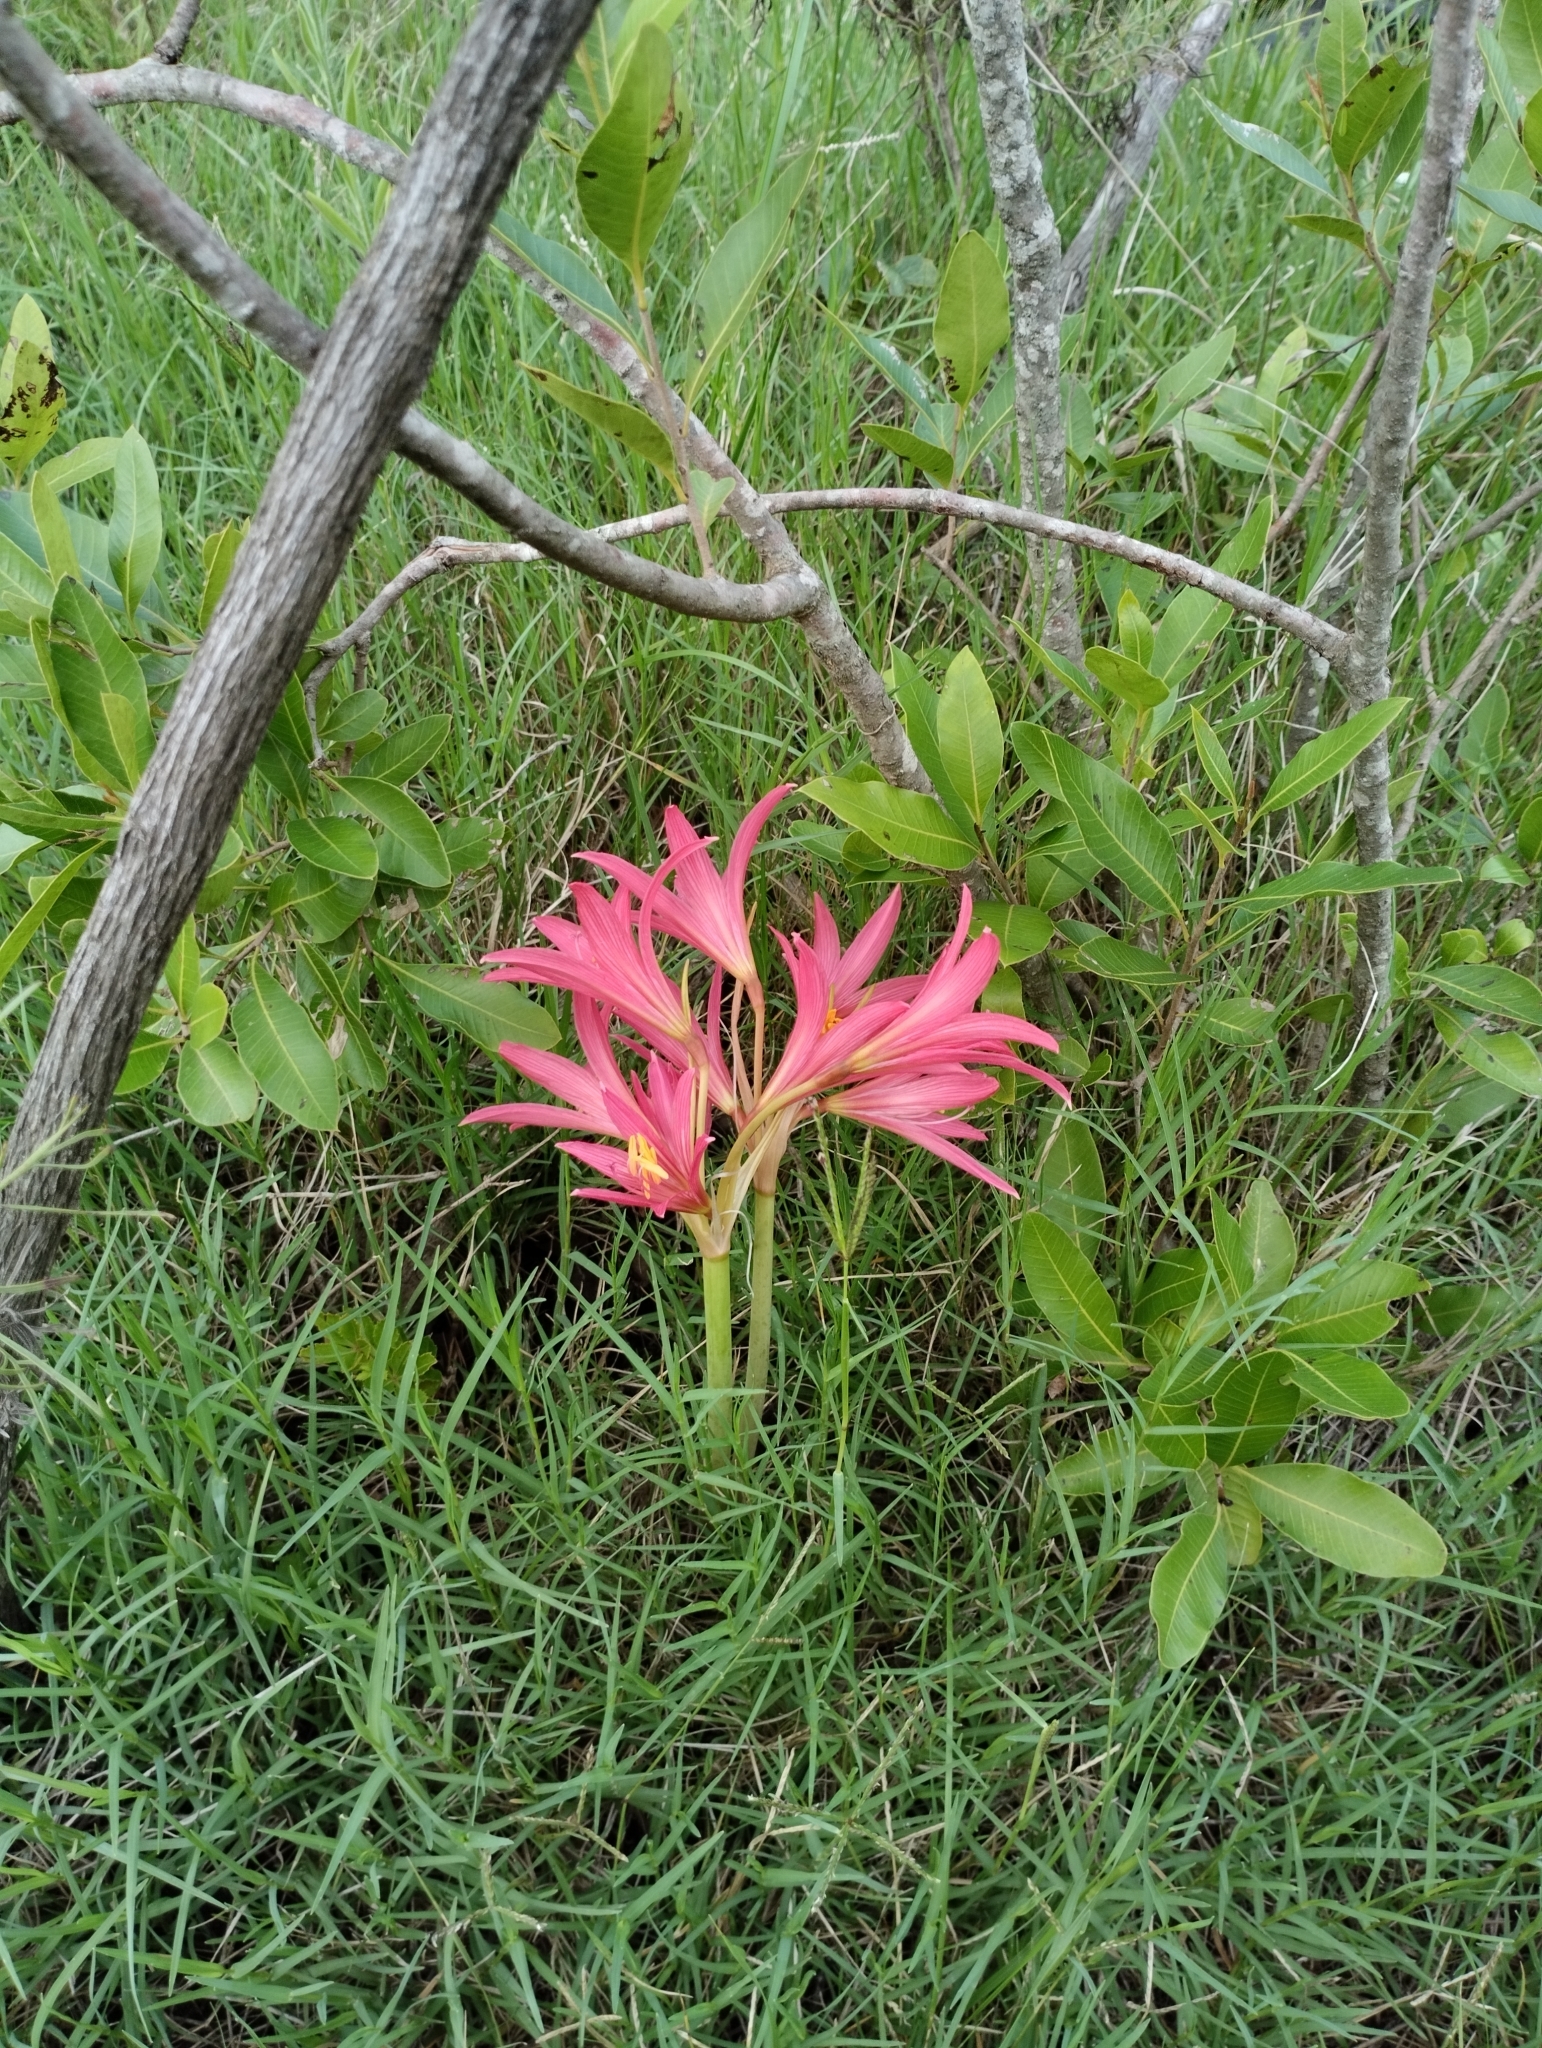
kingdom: Plantae
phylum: Tracheophyta
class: Liliopsida
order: Asparagales
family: Amaryllidaceae
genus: Zephyranthes
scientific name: Zephyranthes bifida
